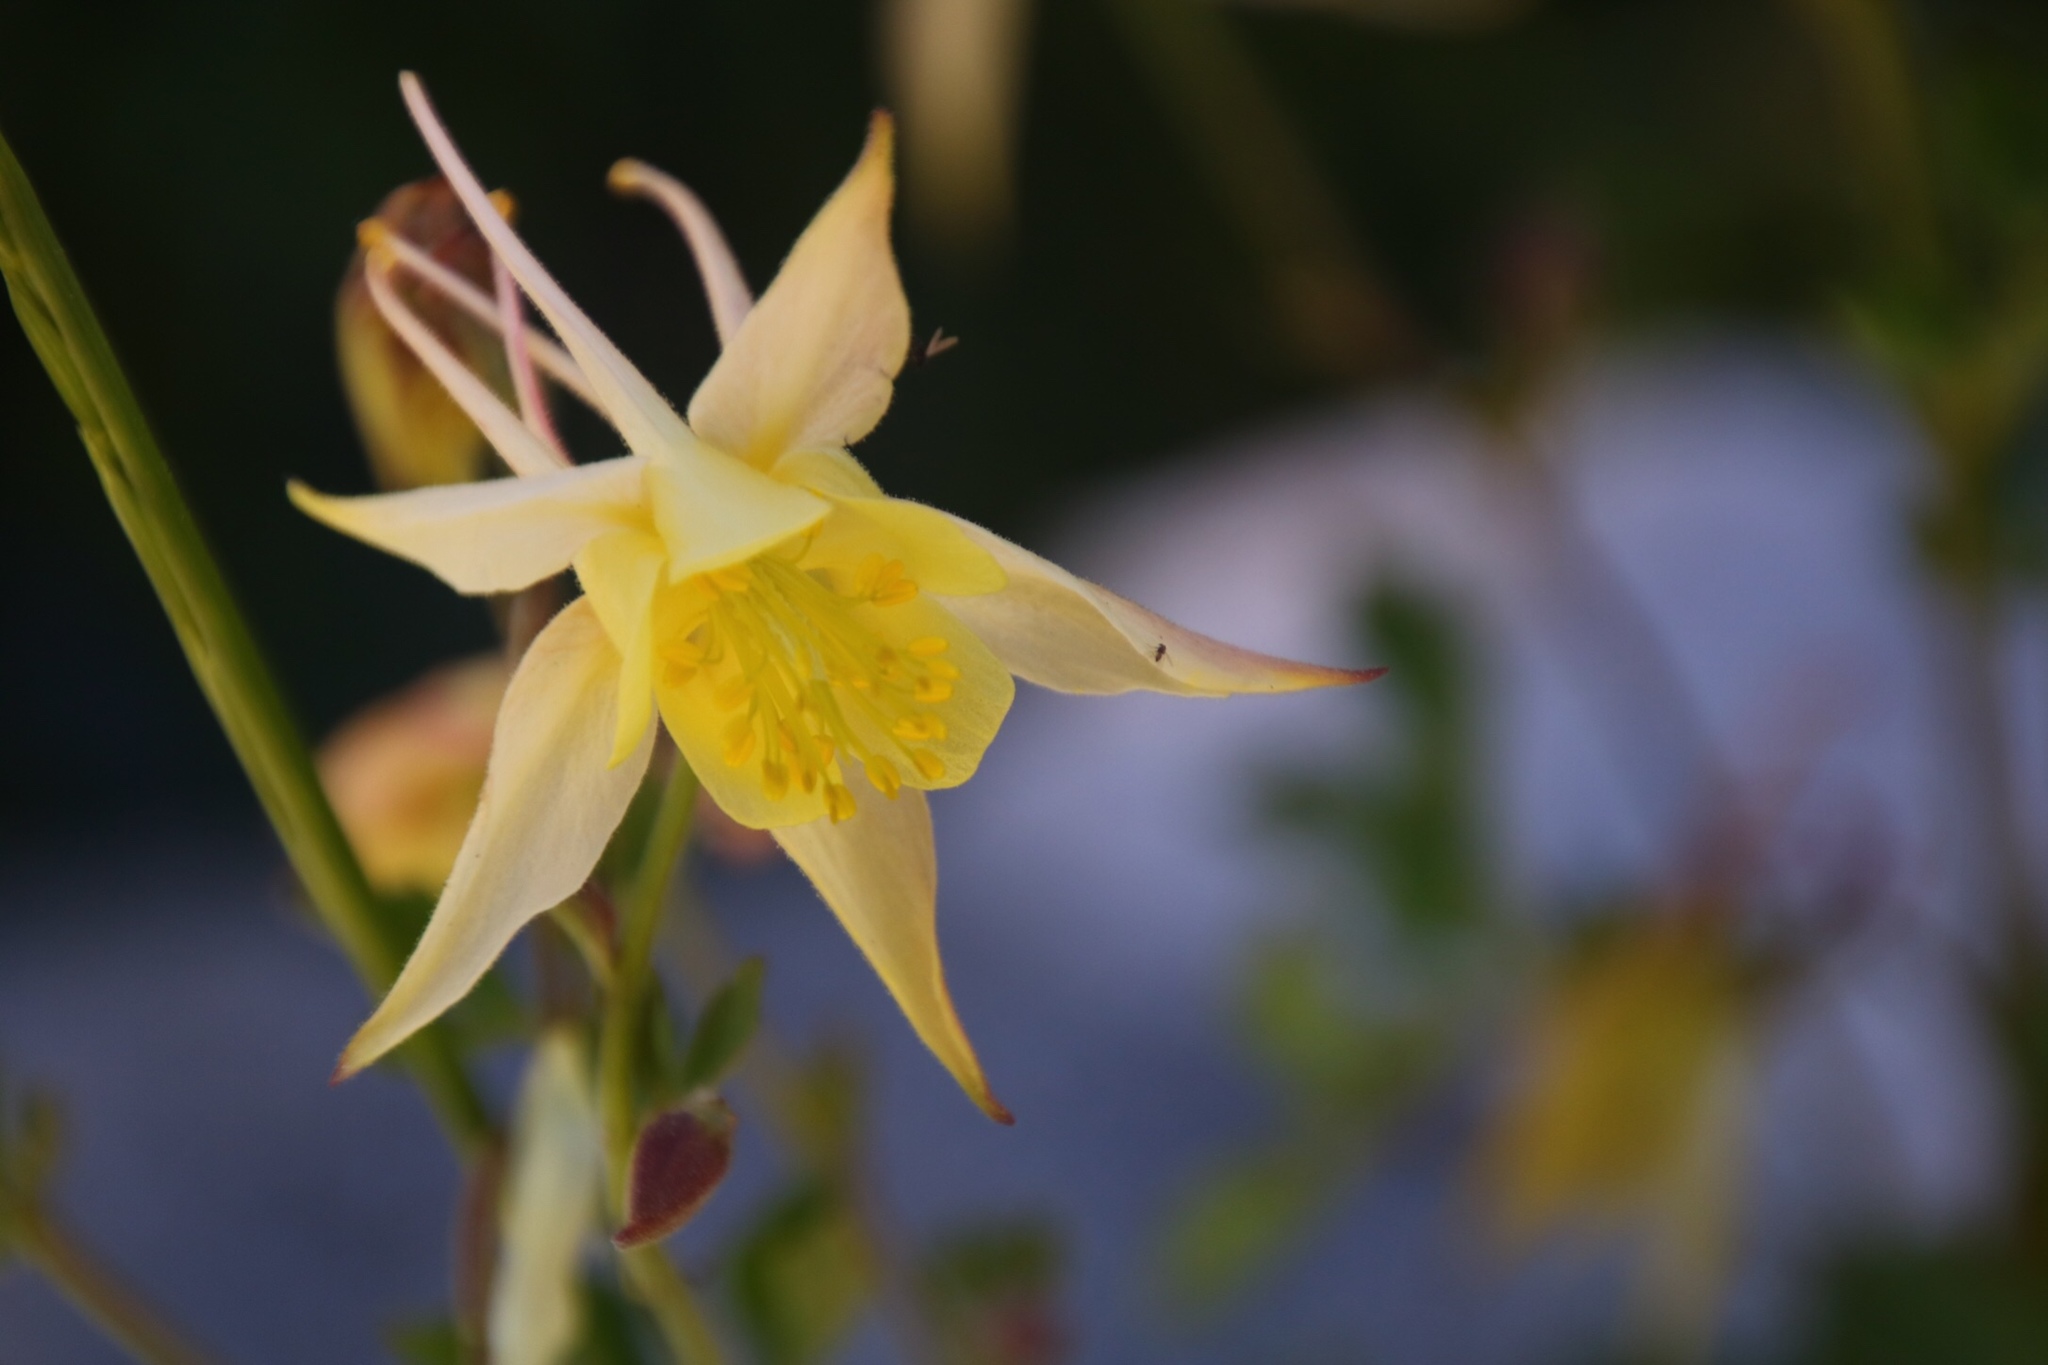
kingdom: Plantae
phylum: Tracheophyta
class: Magnoliopsida
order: Ranunculales
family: Ranunculaceae
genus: Aquilegia
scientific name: Aquilegia pubescens
